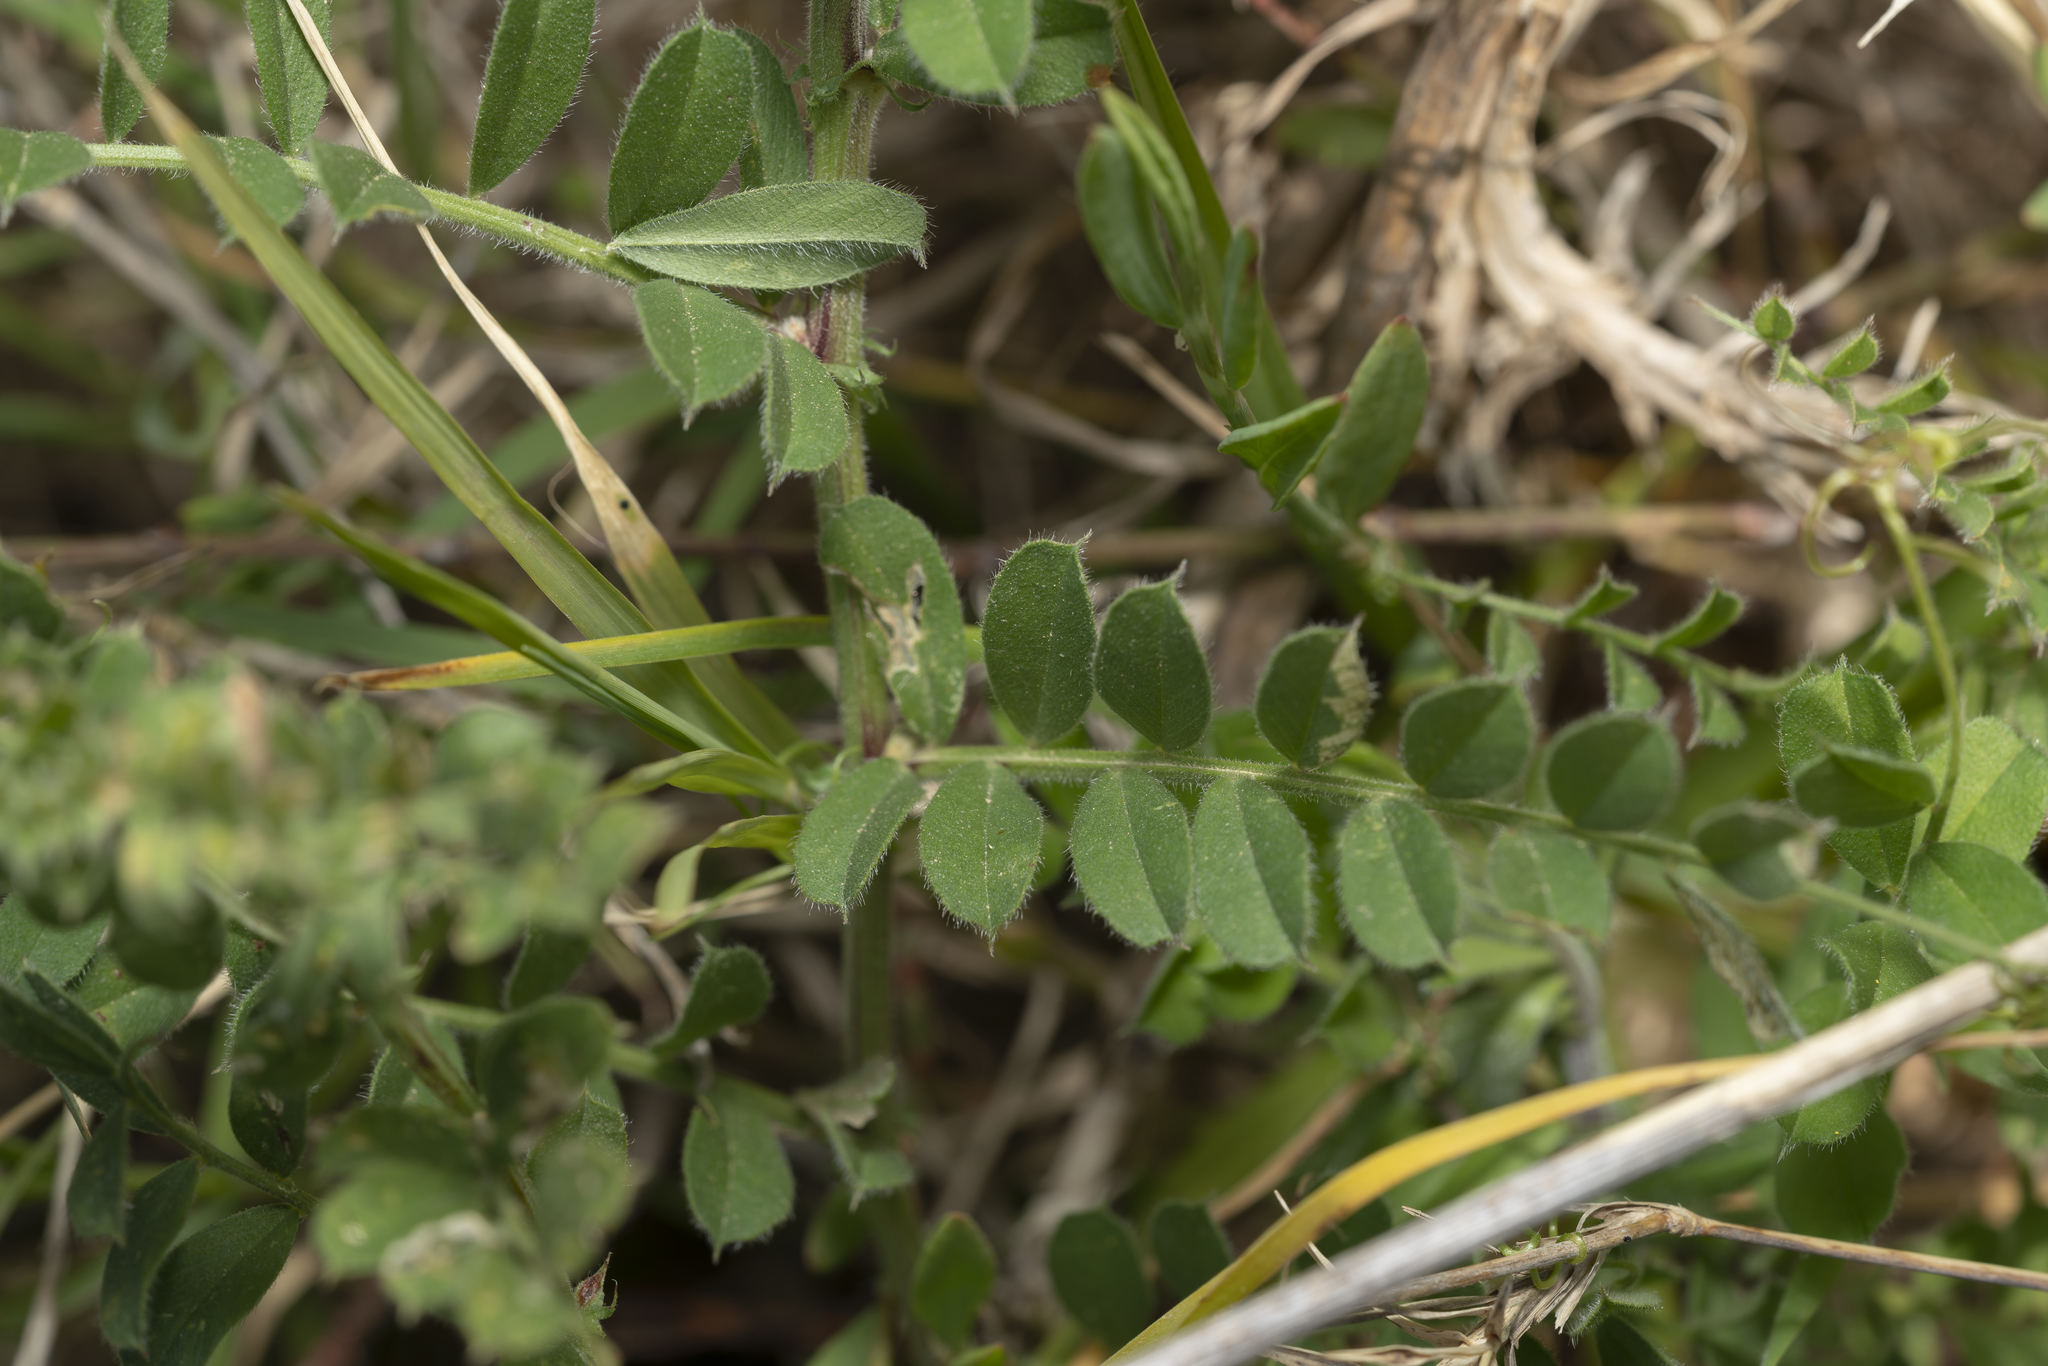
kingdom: Plantae
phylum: Tracheophyta
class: Magnoliopsida
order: Fabales
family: Fabaceae
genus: Vicia
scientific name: Vicia sativa
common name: Garden vetch
